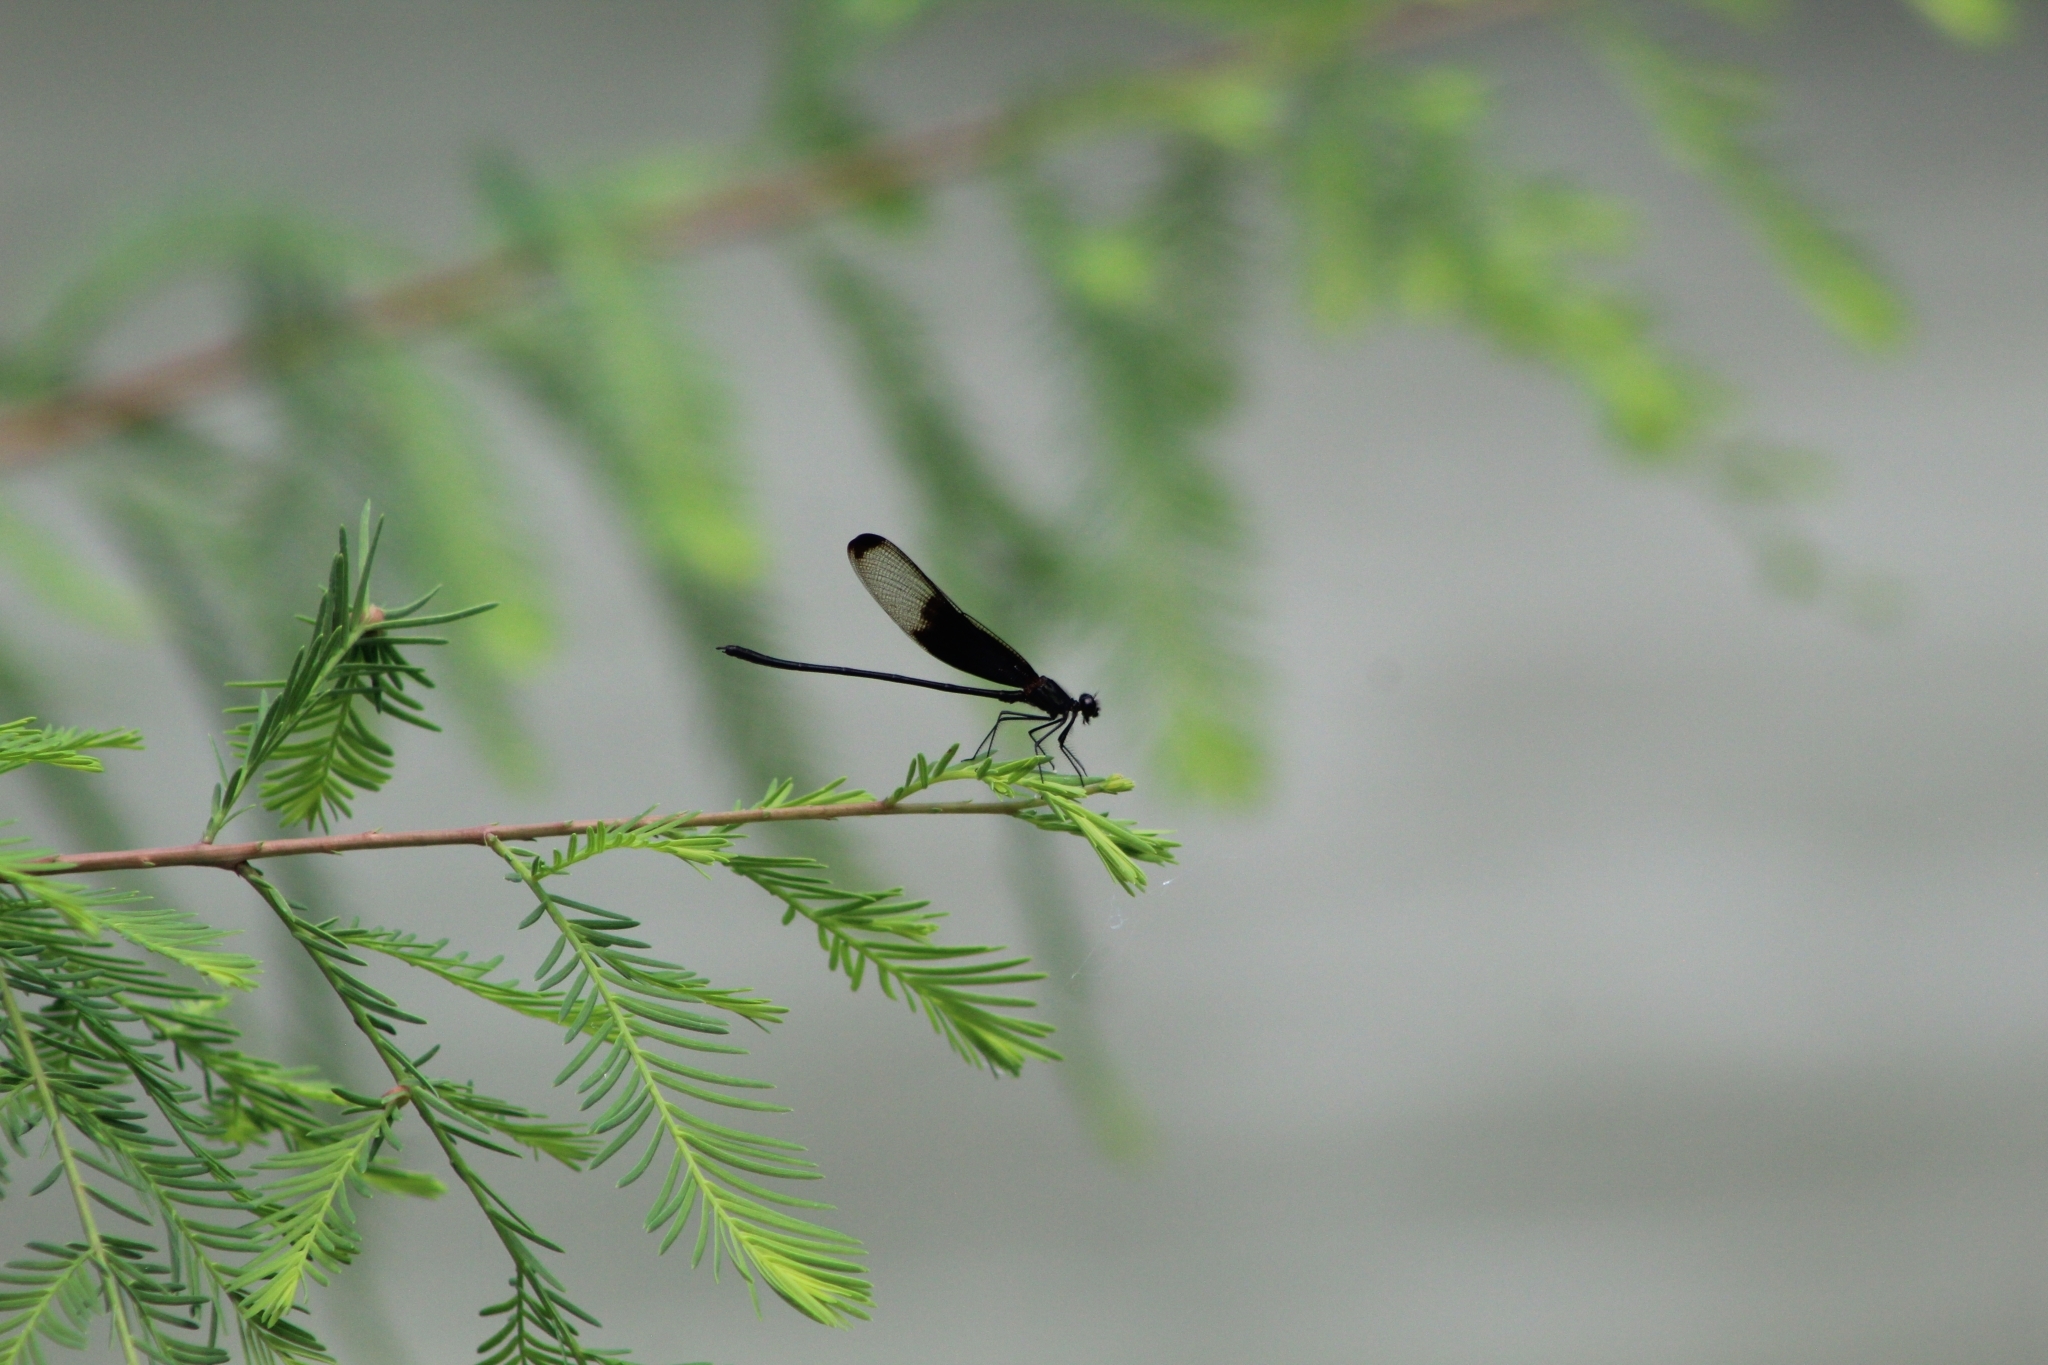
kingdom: Animalia
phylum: Arthropoda
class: Insecta
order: Odonata
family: Calopterygidae
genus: Hetaerina
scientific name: Hetaerina titia
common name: Smoky rubyspot
